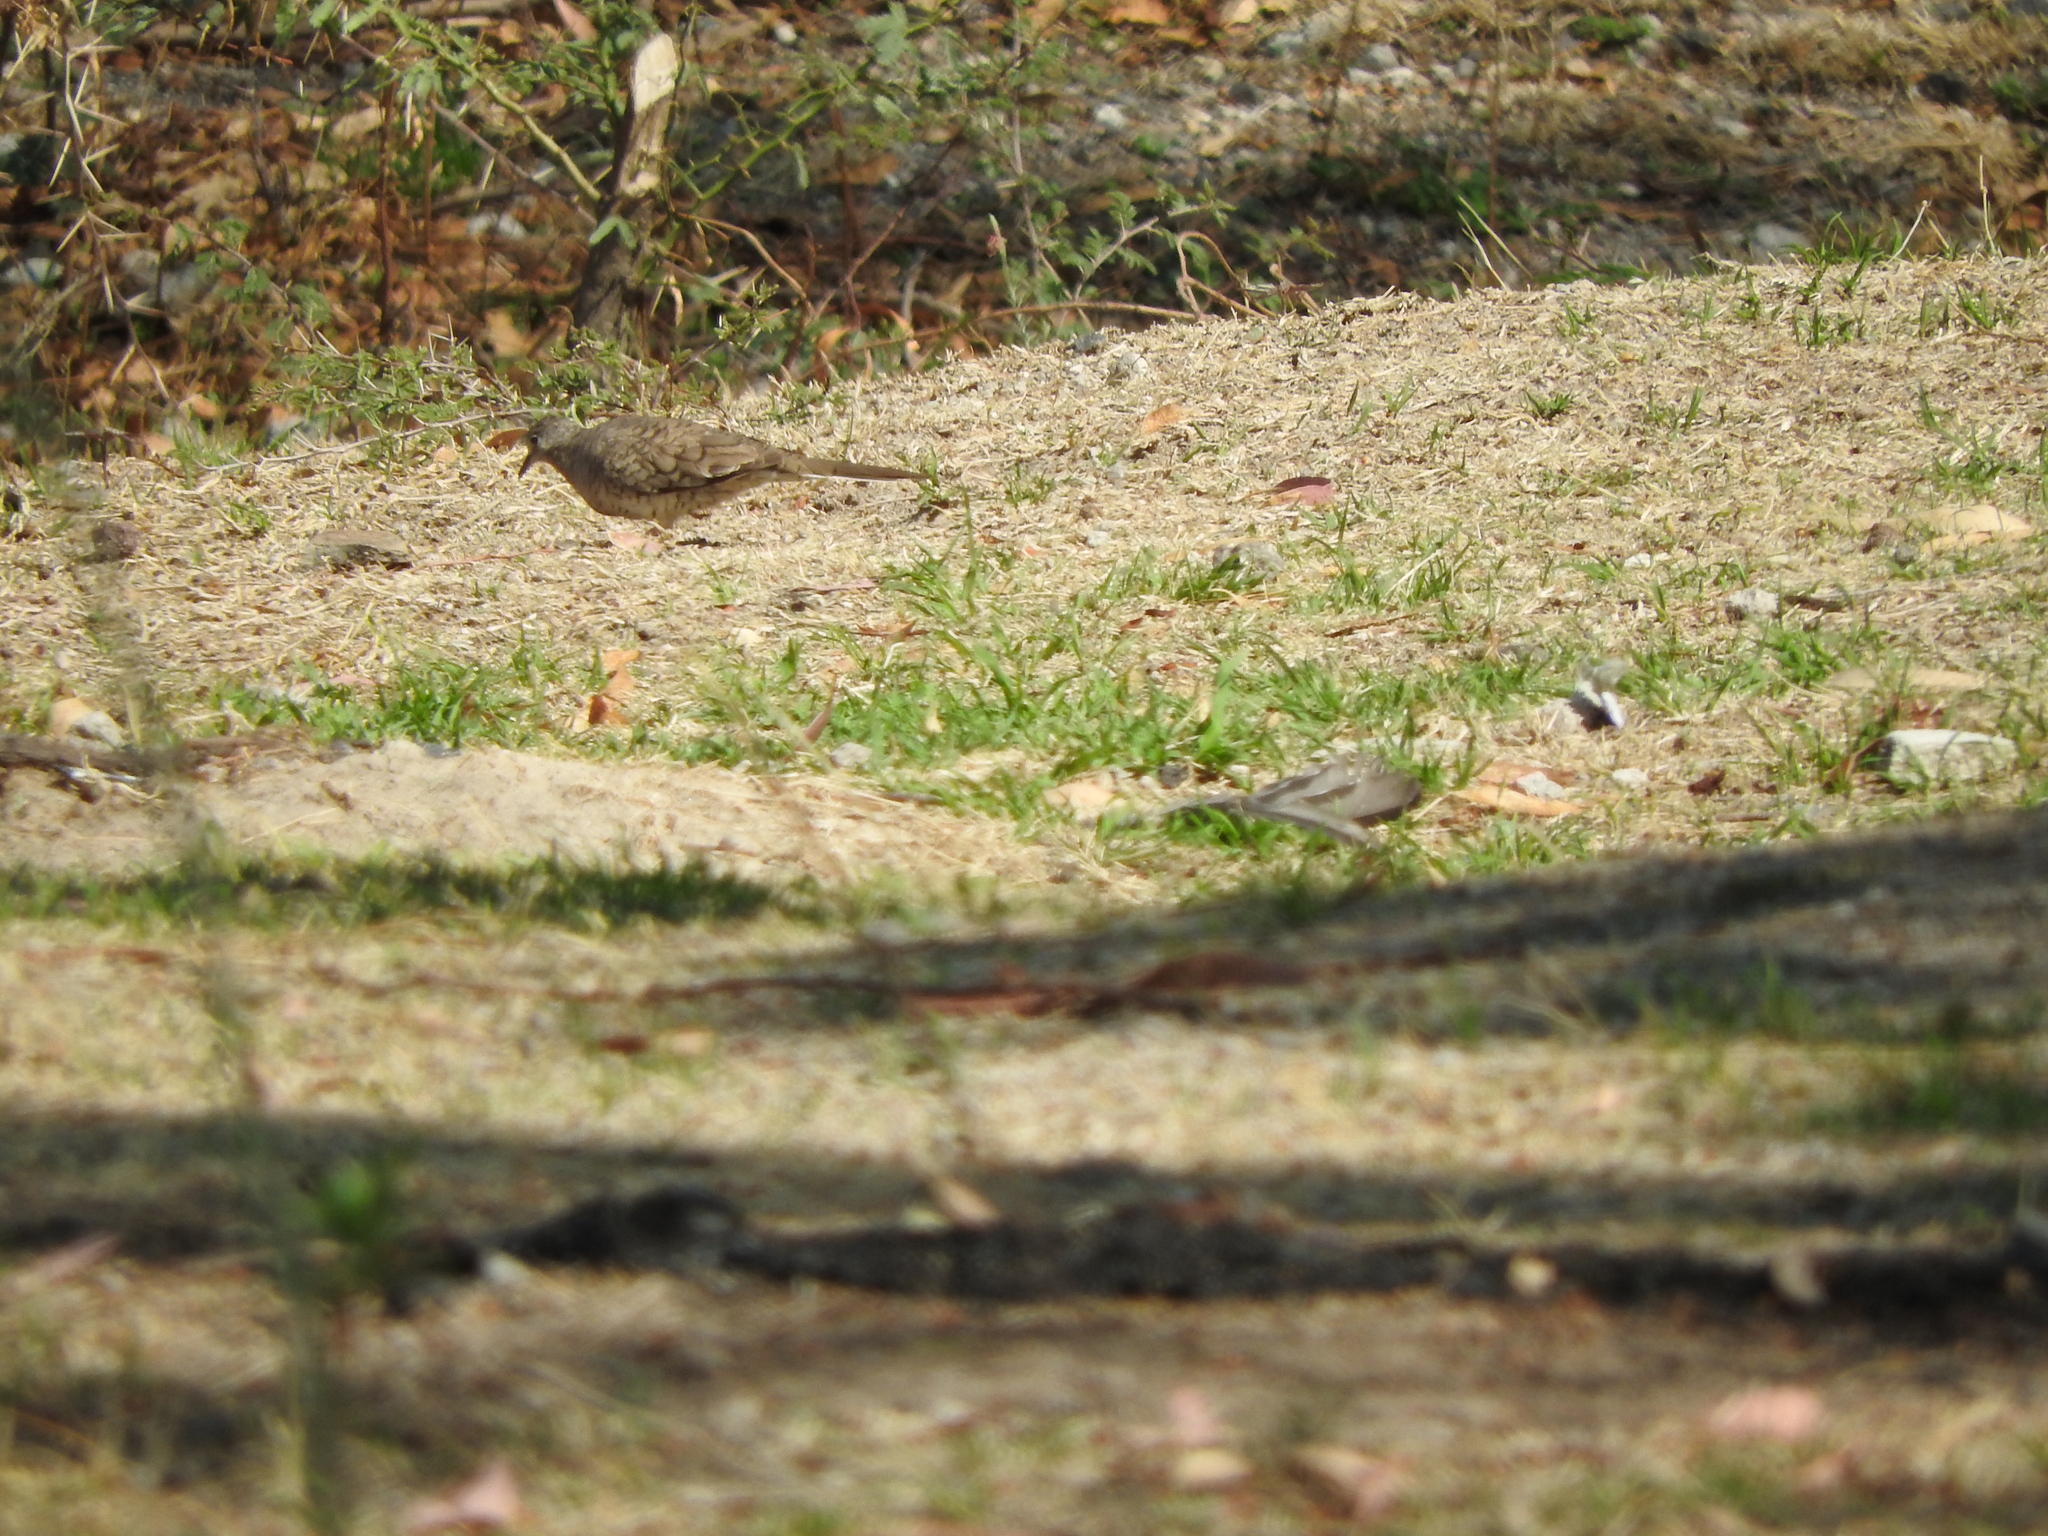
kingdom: Animalia
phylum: Chordata
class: Aves
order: Columbiformes
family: Columbidae
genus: Columbina
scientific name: Columbina inca
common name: Inca dove
